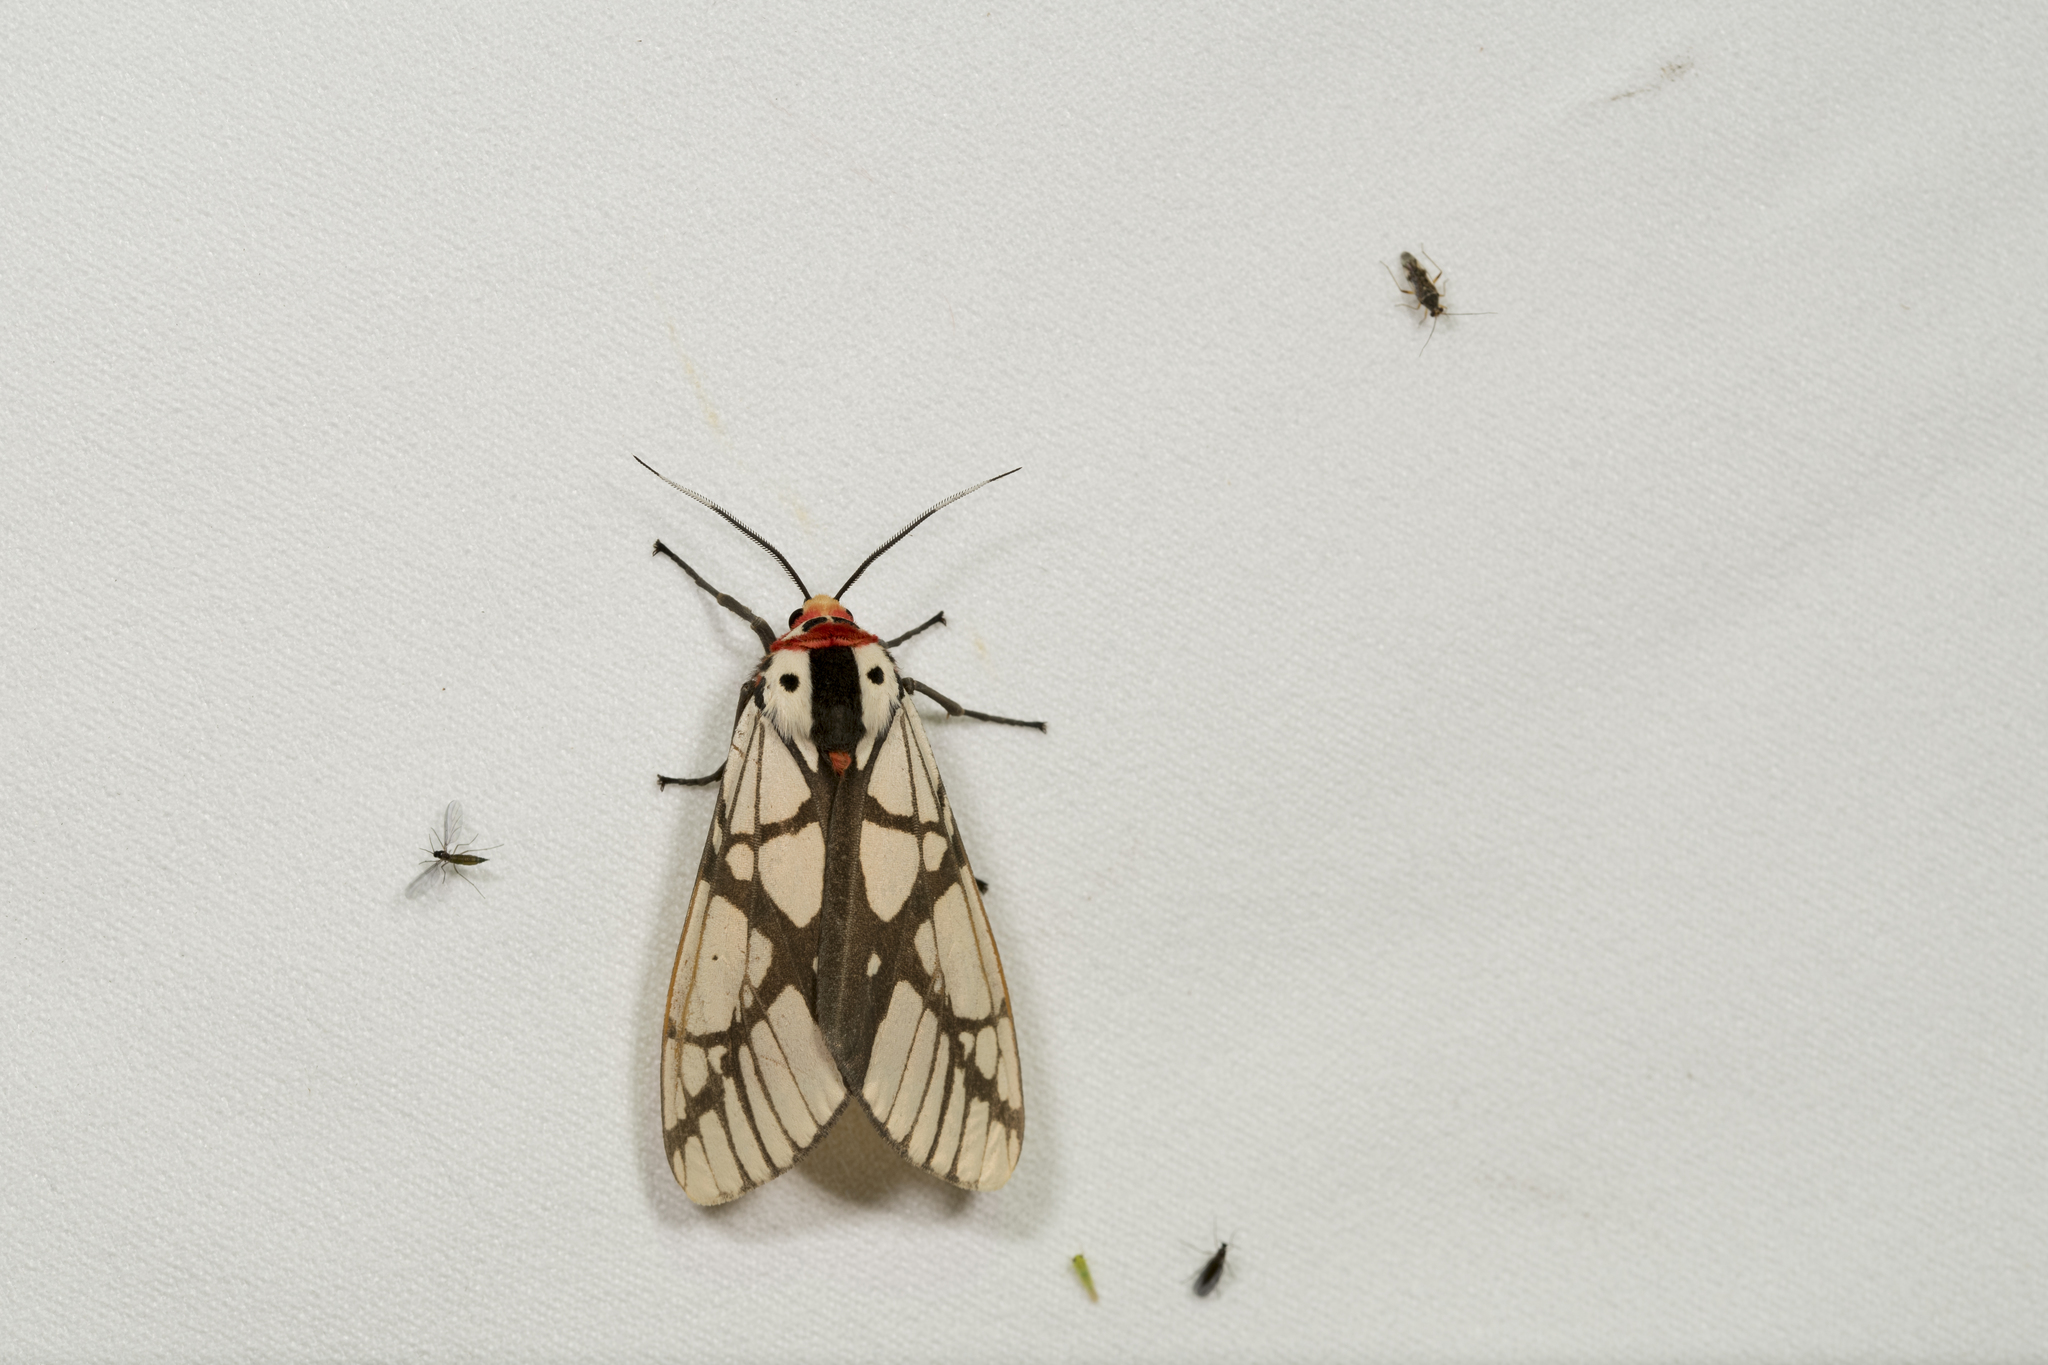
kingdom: Animalia
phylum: Arthropoda
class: Insecta
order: Lepidoptera
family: Erebidae
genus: Areas
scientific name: Areas galactina
